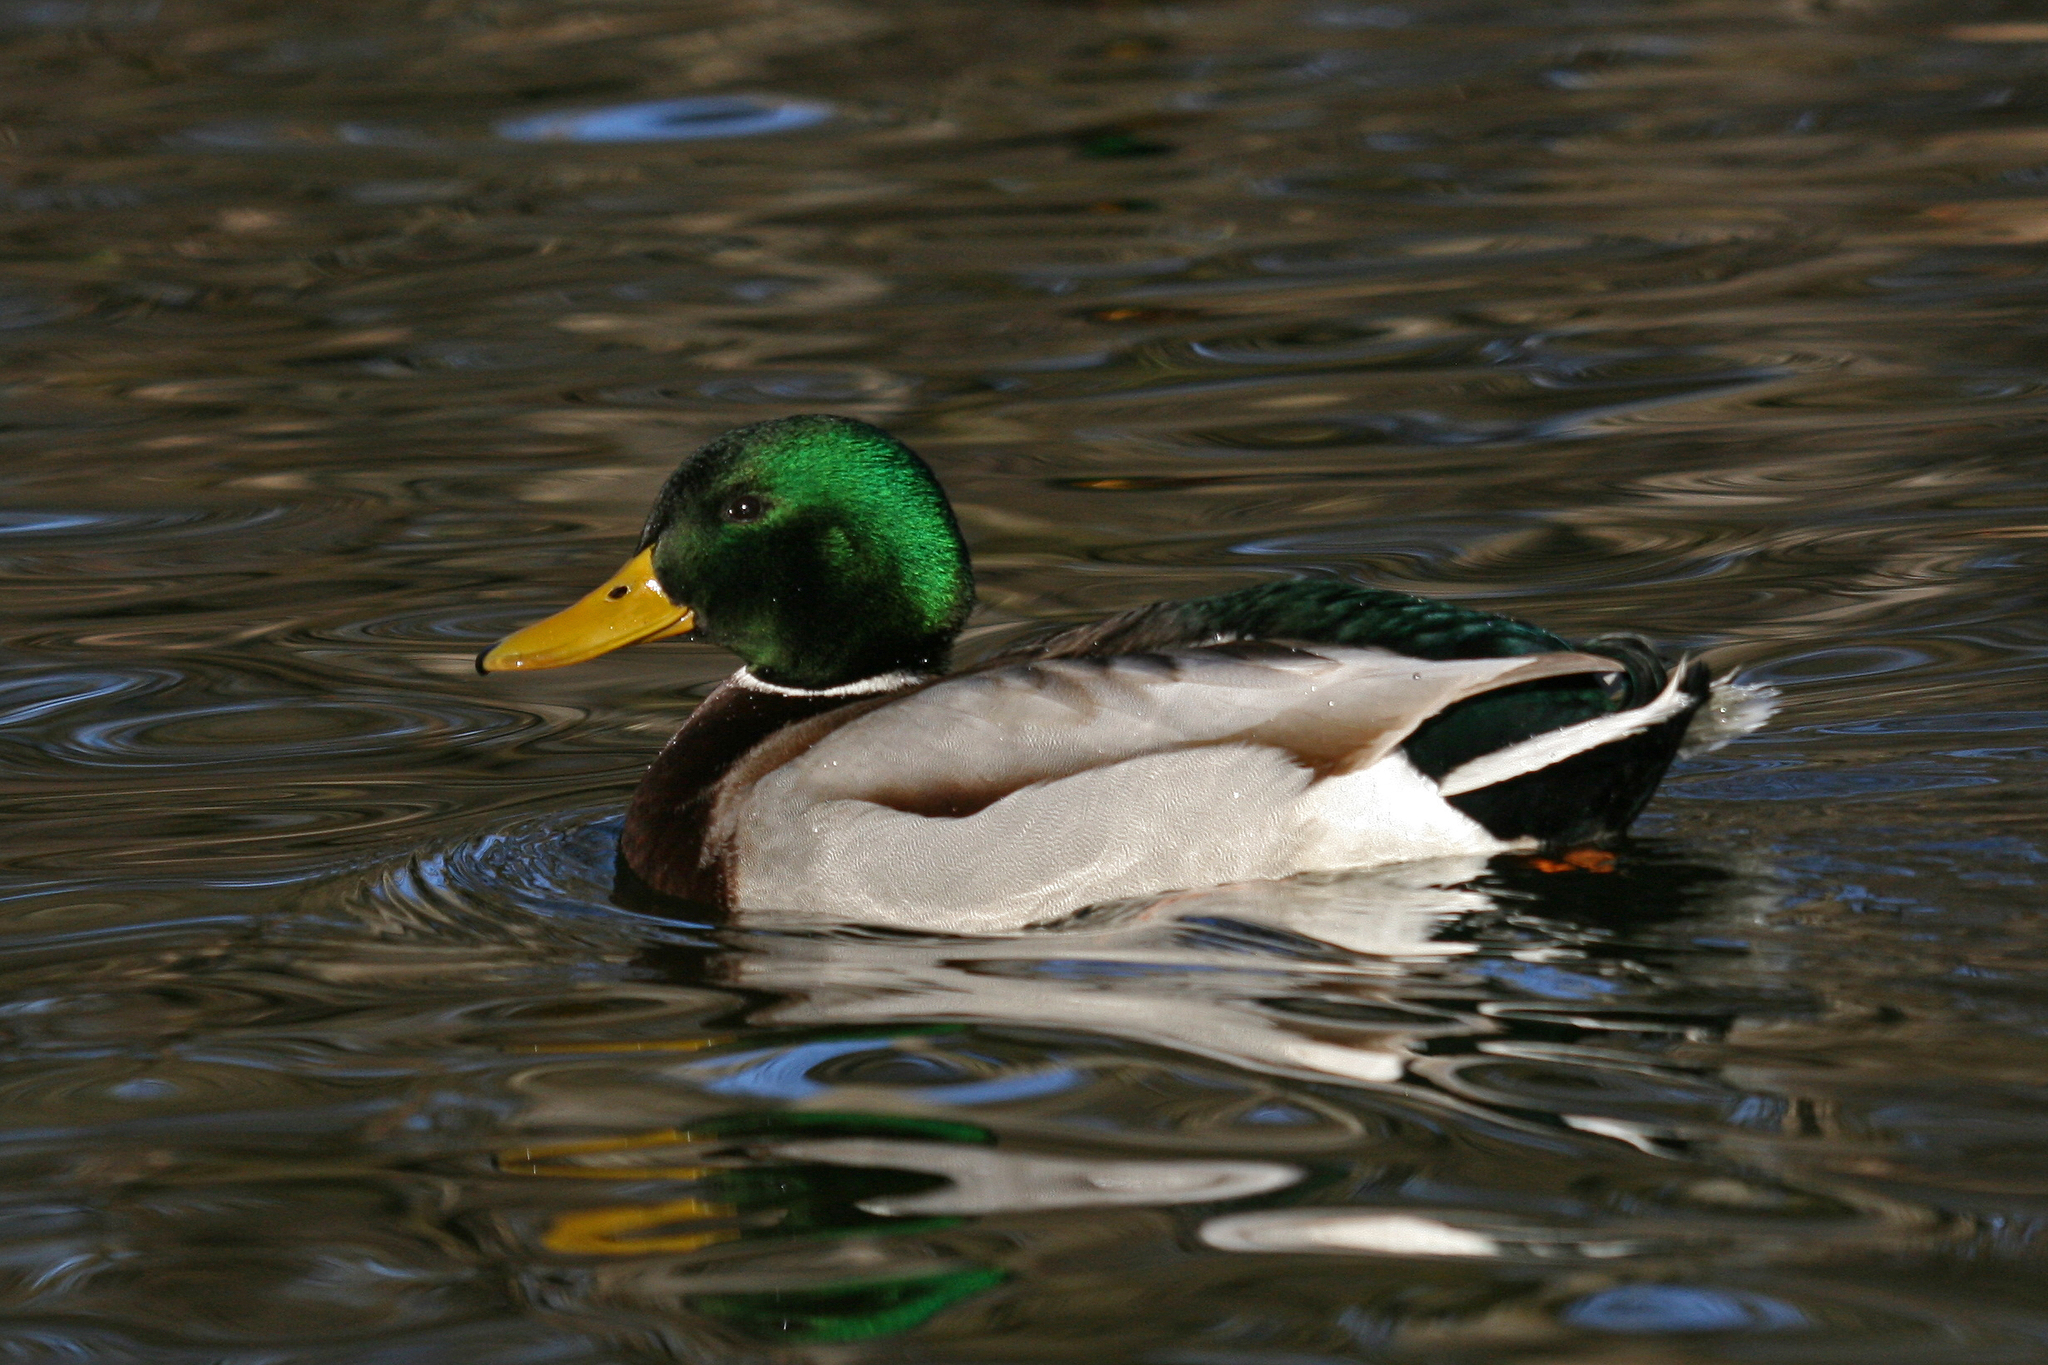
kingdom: Animalia
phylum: Chordata
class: Aves
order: Anseriformes
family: Anatidae
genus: Anas
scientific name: Anas platyrhynchos
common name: Mallard
